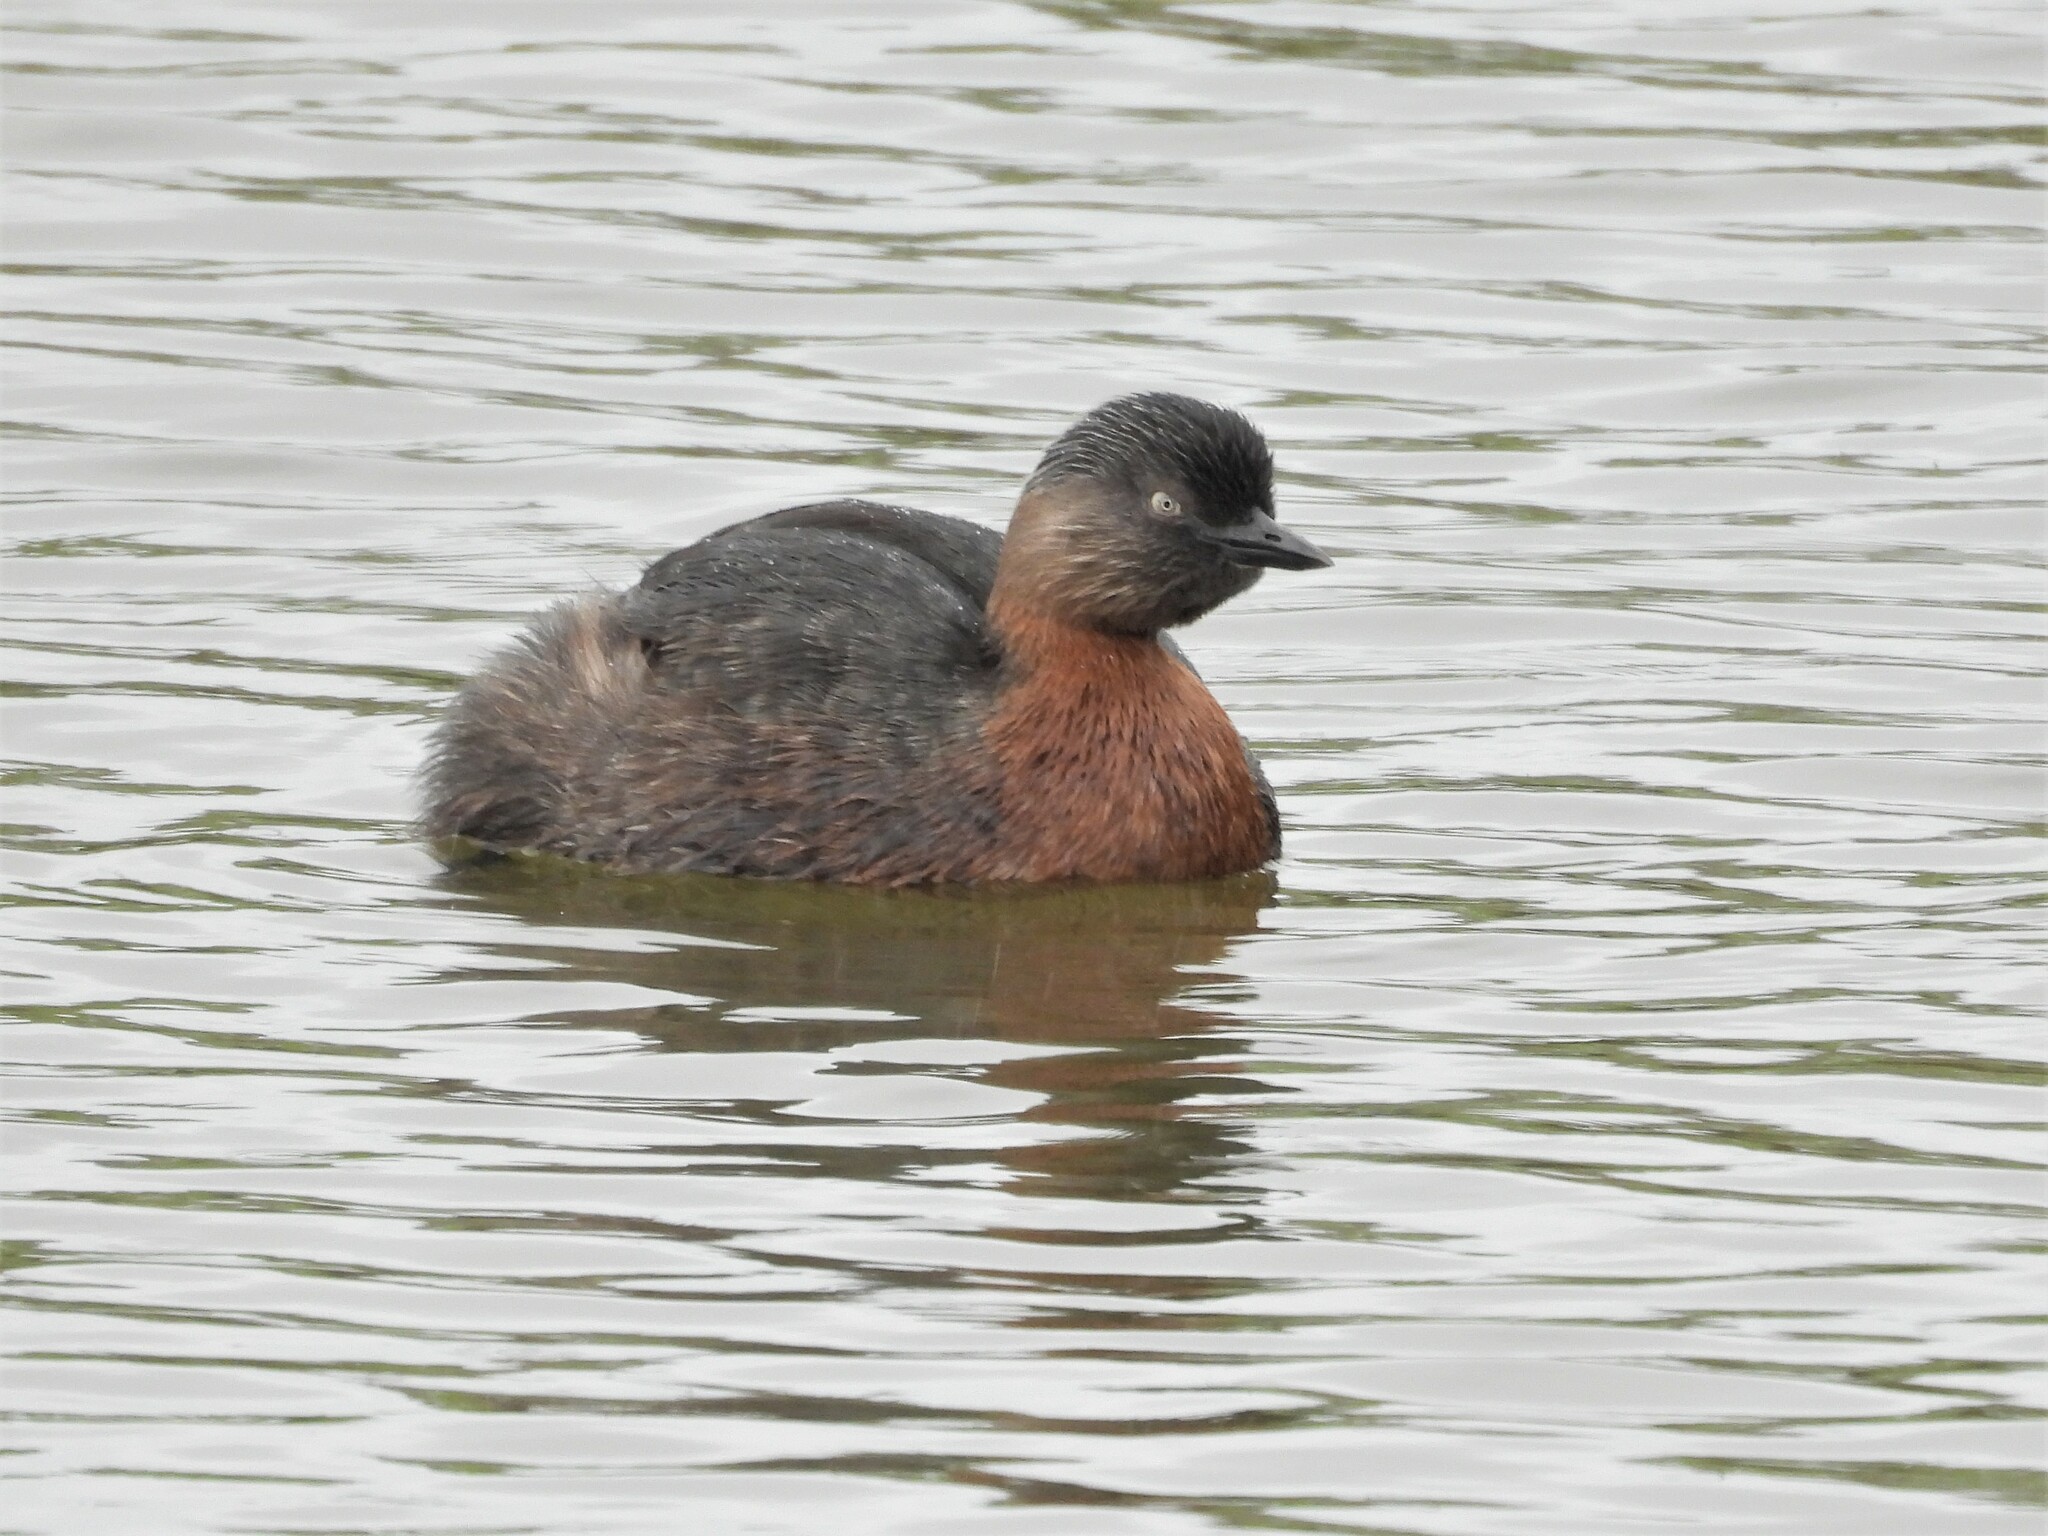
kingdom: Animalia
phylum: Chordata
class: Aves
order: Podicipediformes
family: Podicipedidae
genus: Poliocephalus
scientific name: Poliocephalus rufopectus
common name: New zealand grebe
